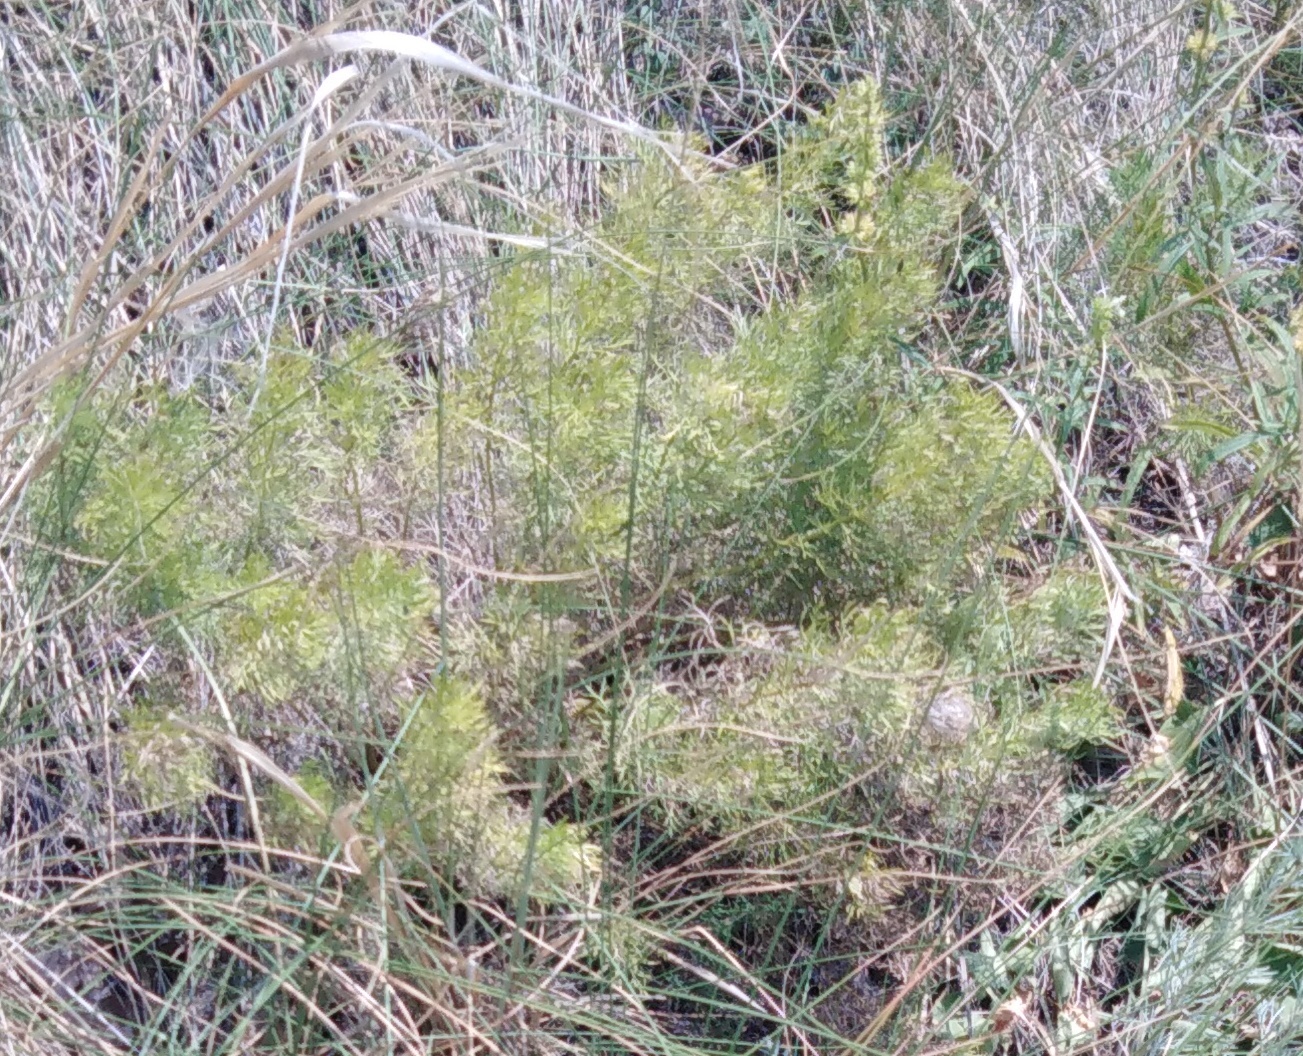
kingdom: Plantae
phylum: Tracheophyta
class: Magnoliopsida
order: Ranunculales
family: Ranunculaceae
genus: Adonis
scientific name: Adonis vernalis
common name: Yellow pheasants-eye
